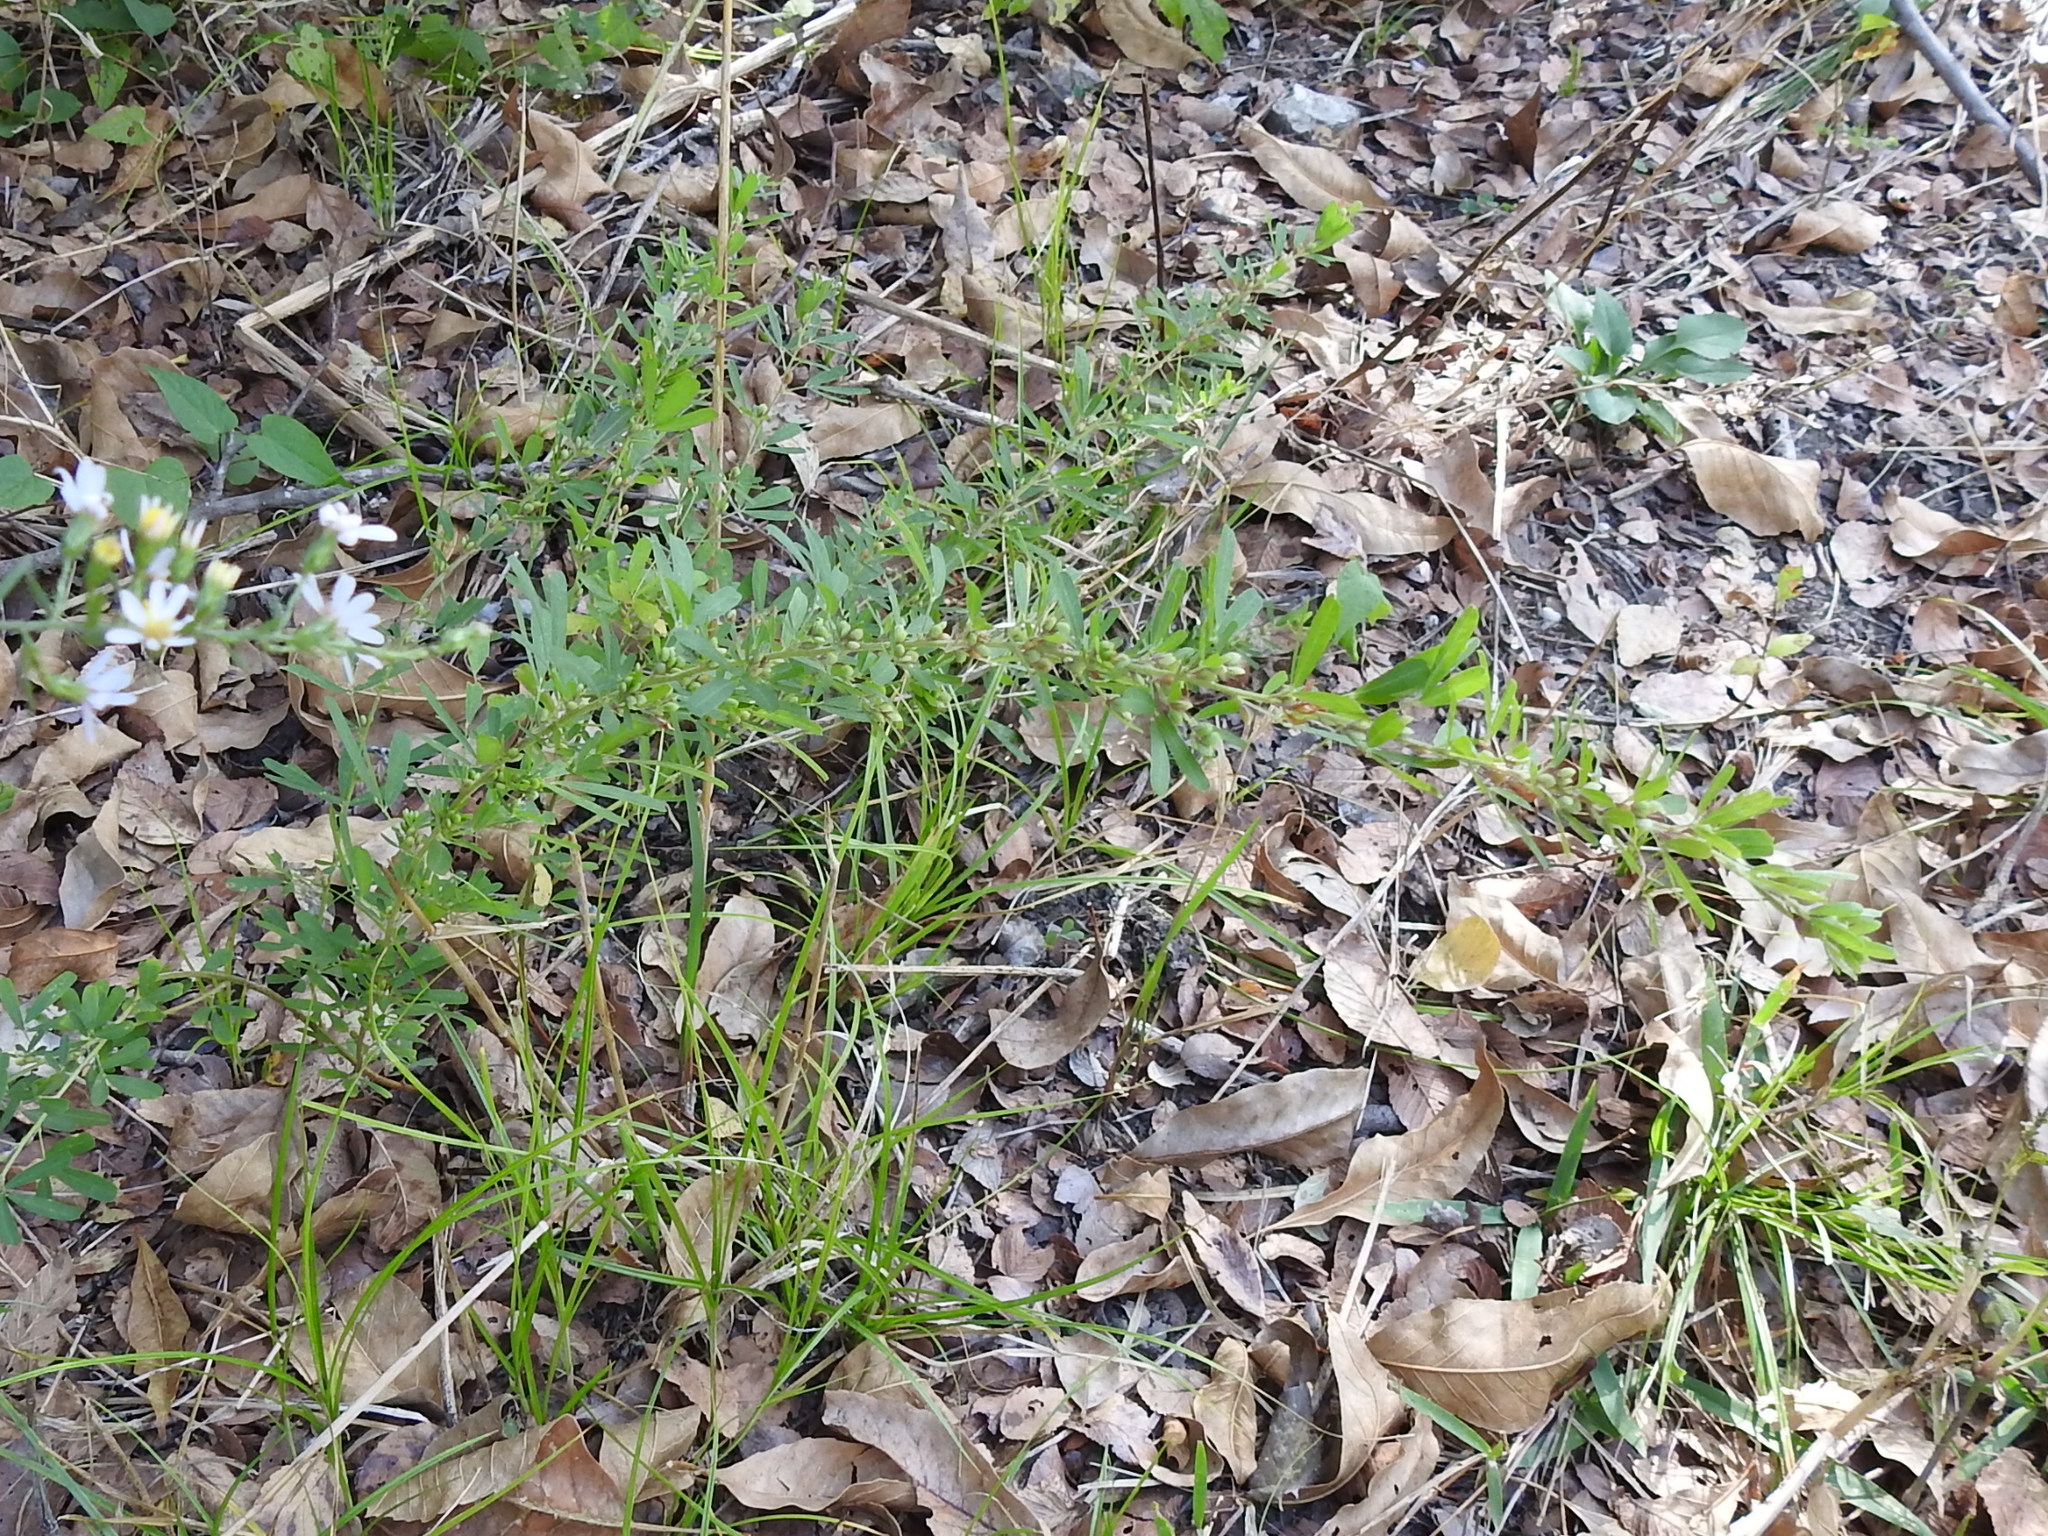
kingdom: Plantae
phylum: Tracheophyta
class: Magnoliopsida
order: Fabales
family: Fabaceae
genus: Lespedeza
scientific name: Lespedeza cuneata
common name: Chinese bush-clover
